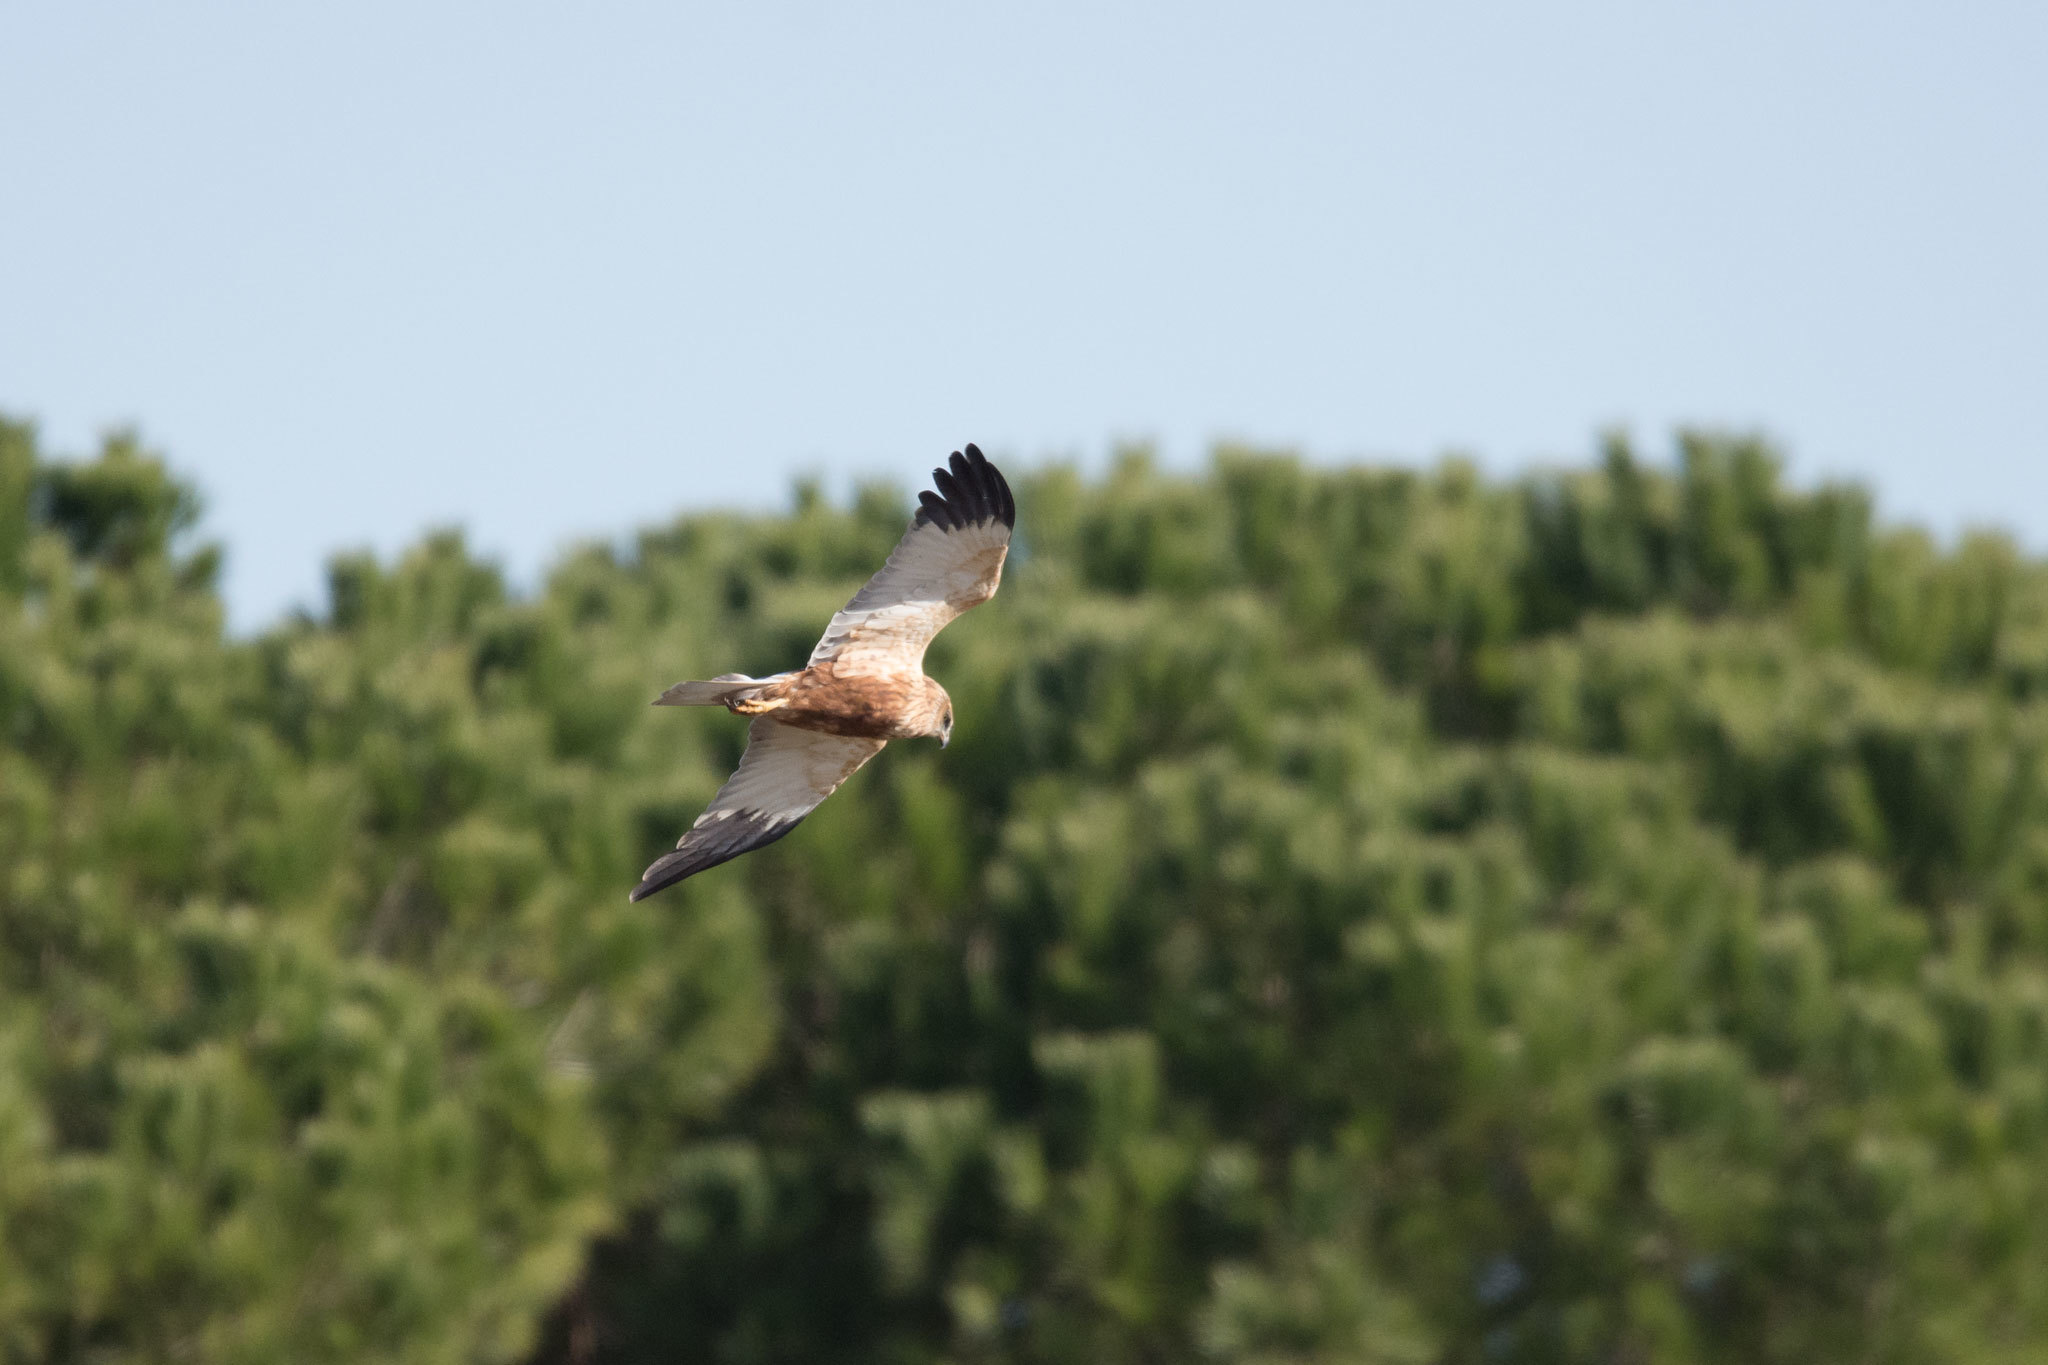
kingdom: Animalia
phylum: Chordata
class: Aves
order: Accipitriformes
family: Accipitridae
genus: Circus
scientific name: Circus aeruginosus
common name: Western marsh harrier
